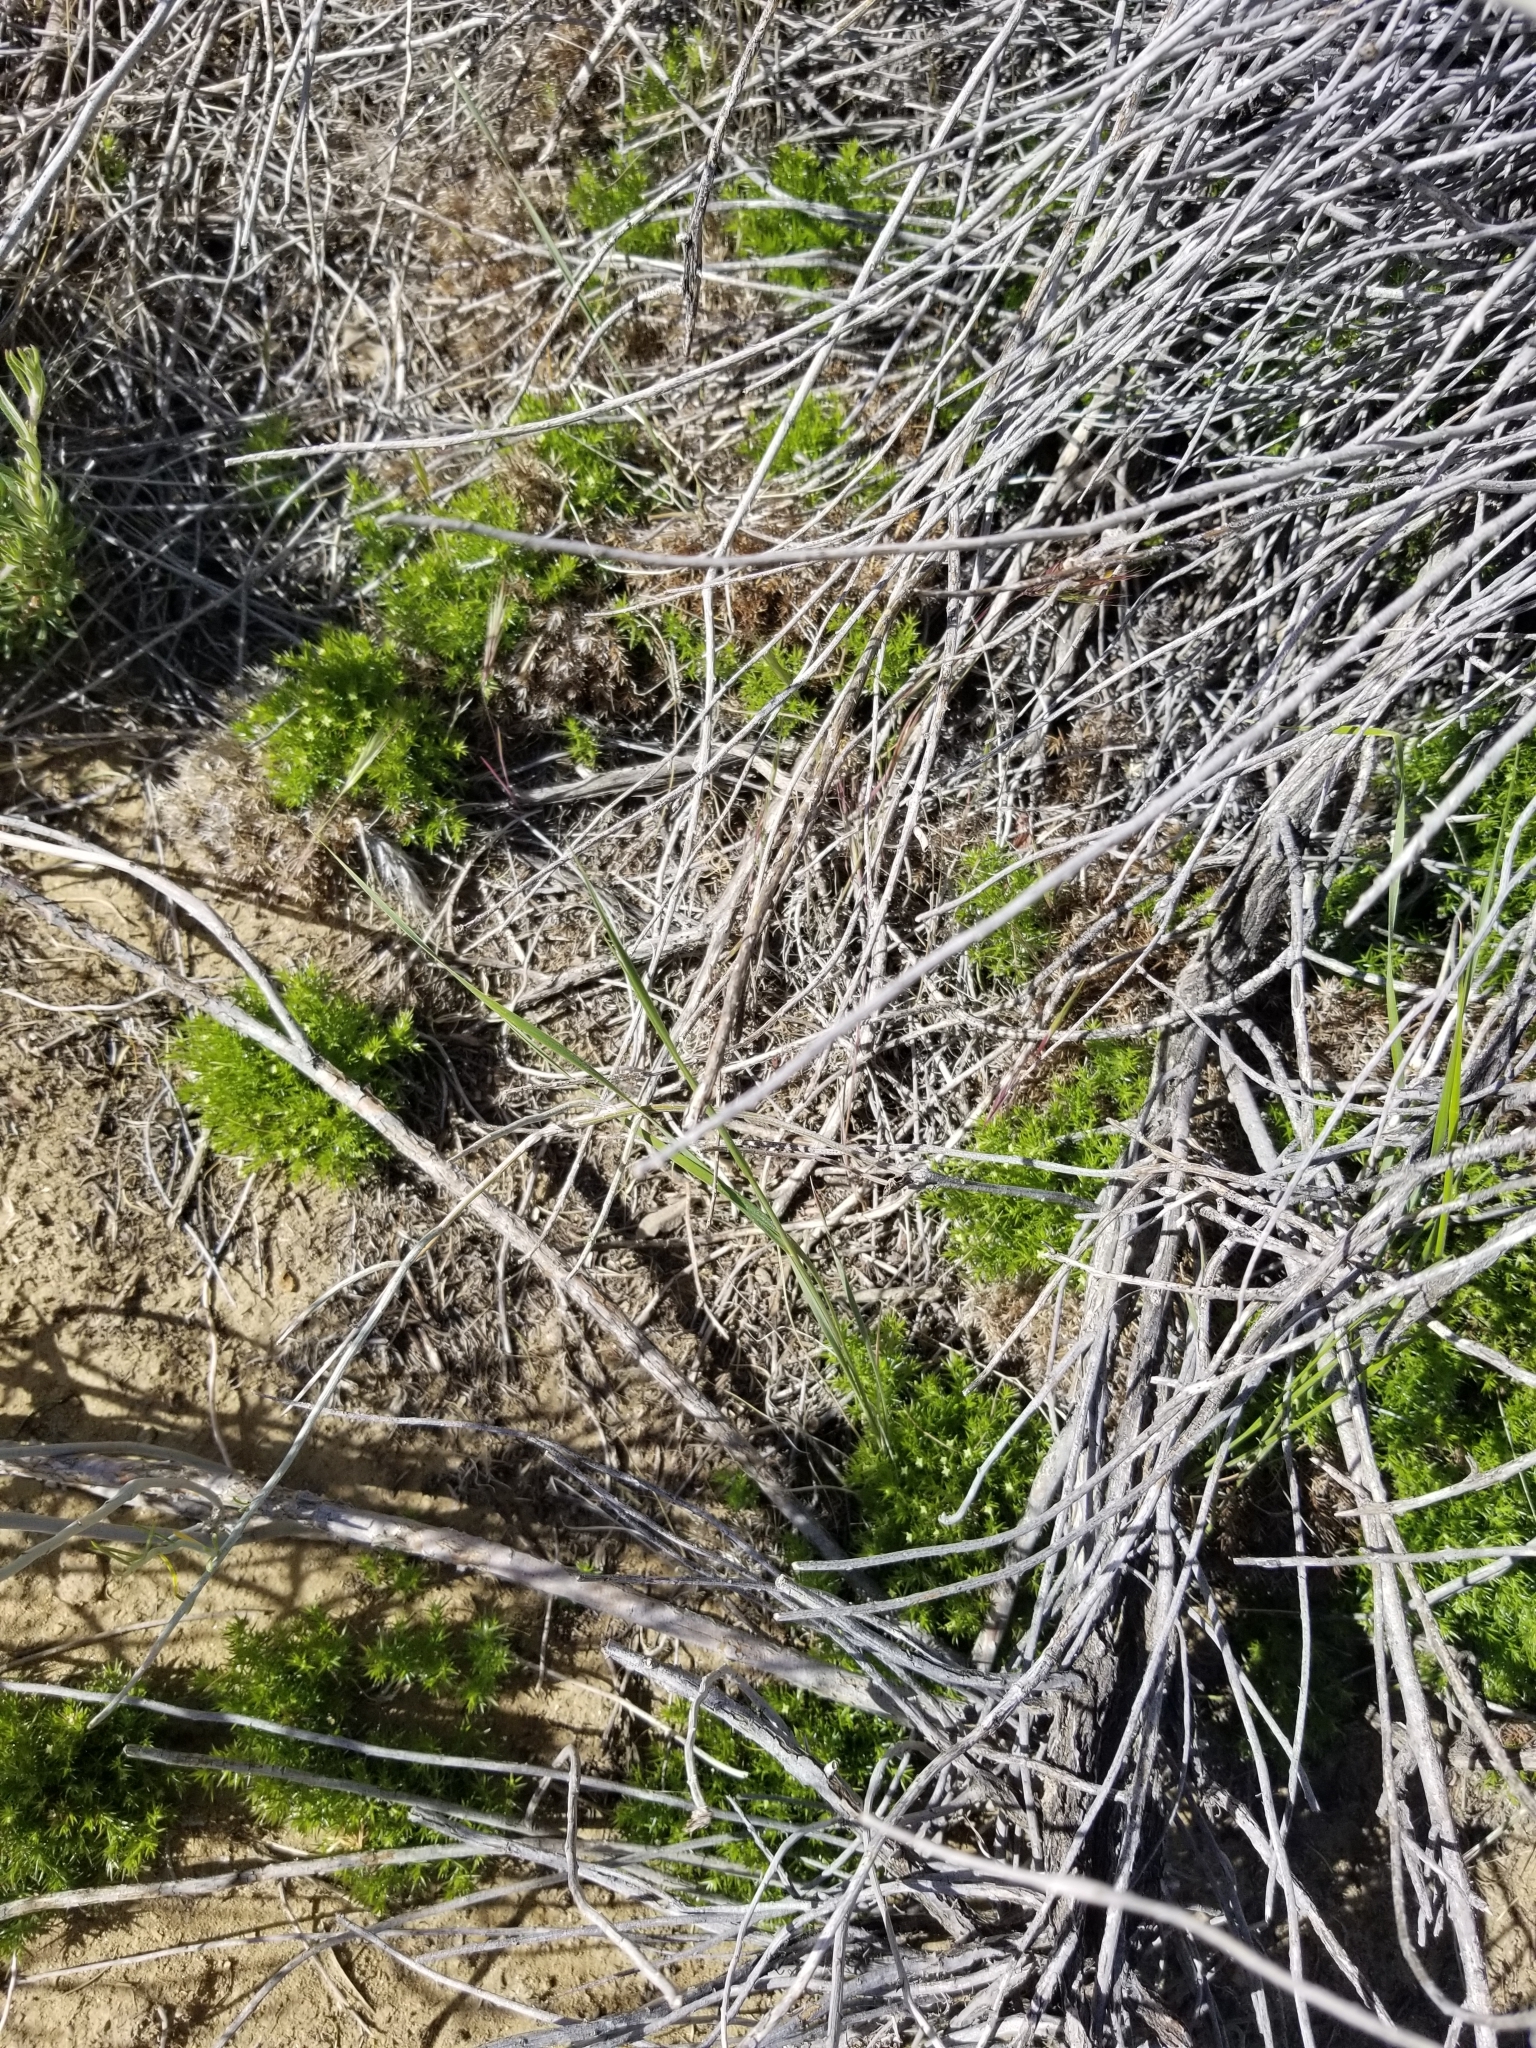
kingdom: Plantae
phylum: Tracheophyta
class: Magnoliopsida
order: Gentianales
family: Rubiaceae
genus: Galium
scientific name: Galium andrewsii
